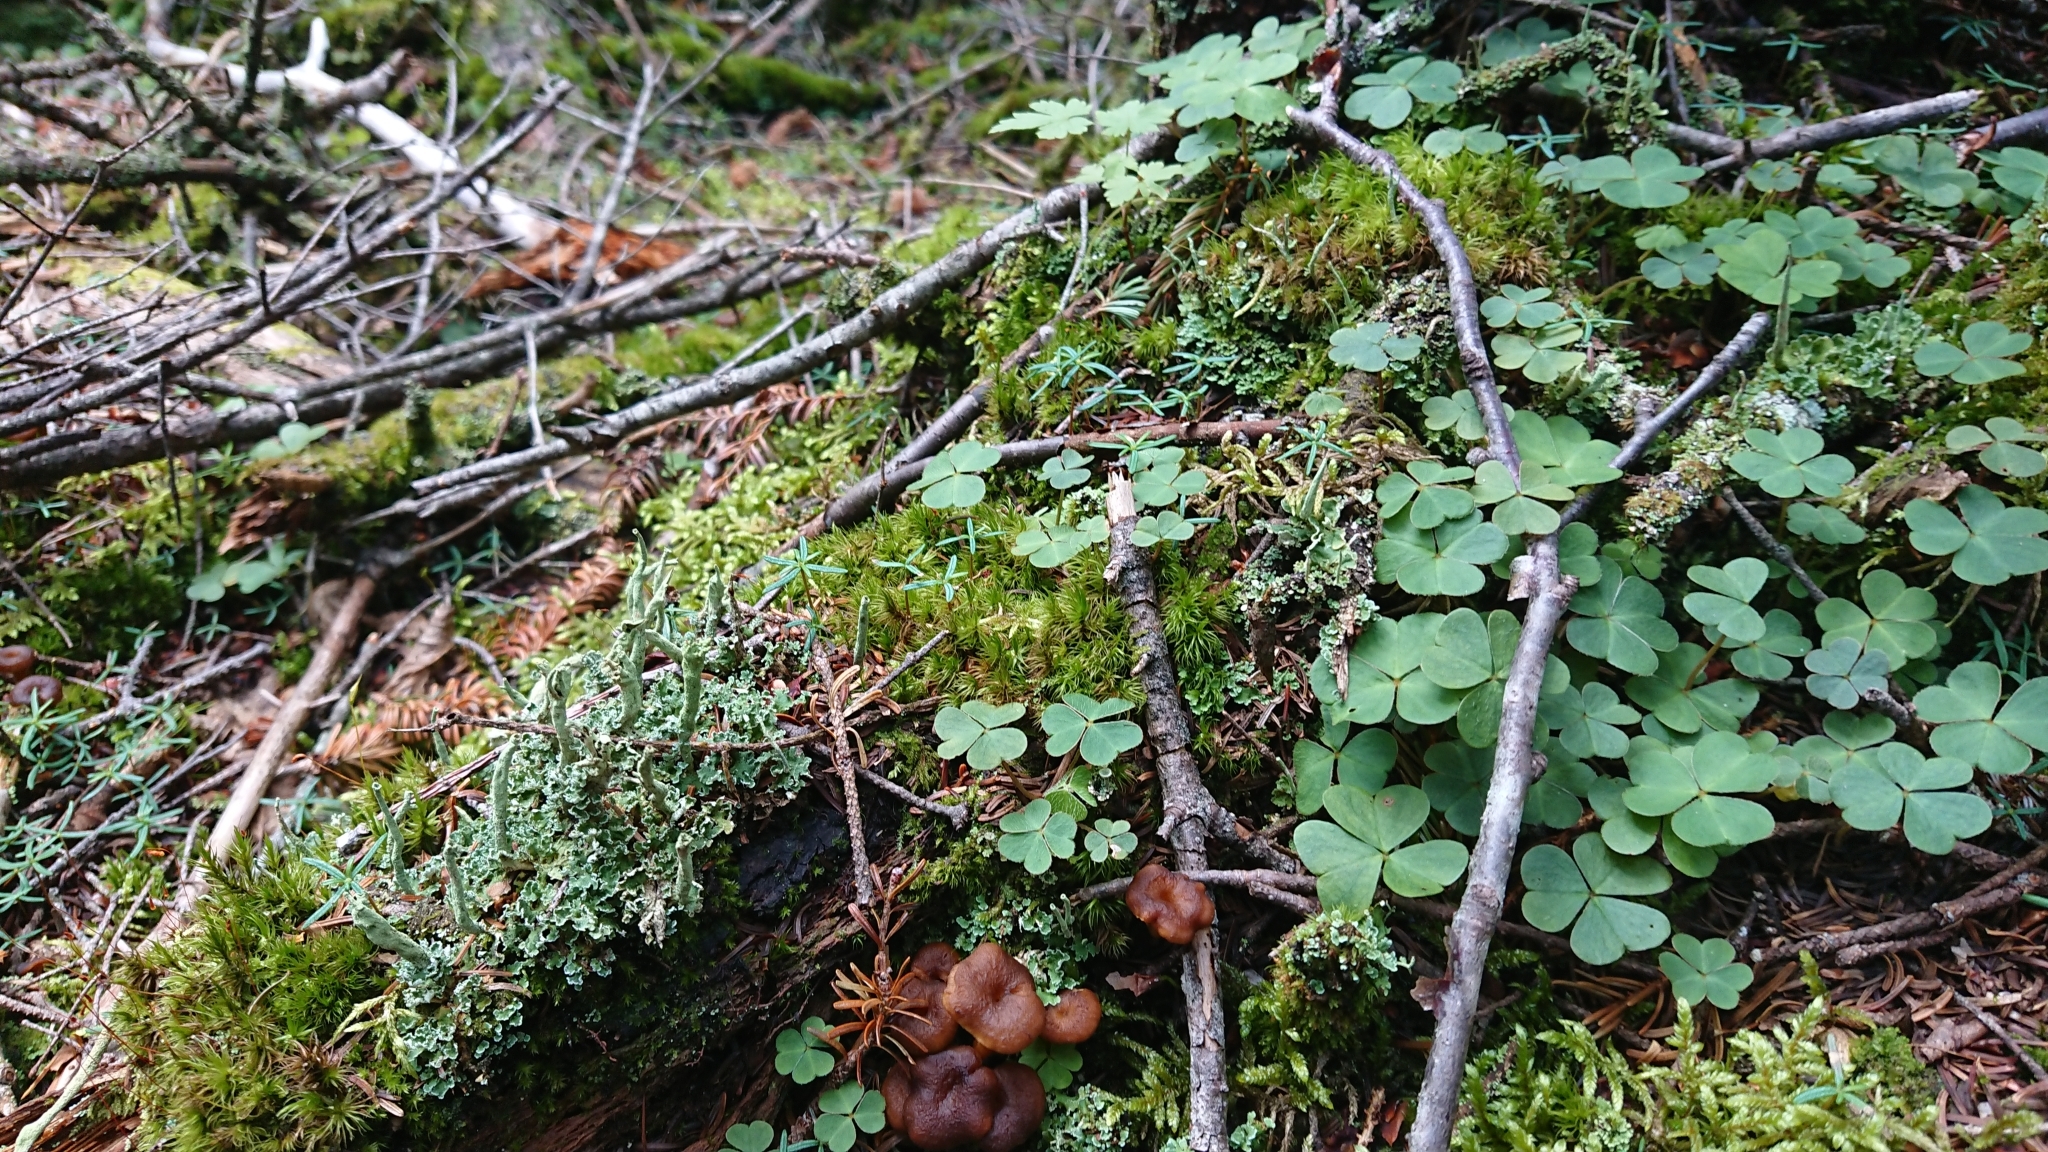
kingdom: Plantae
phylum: Tracheophyta
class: Magnoliopsida
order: Oxalidales
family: Oxalidaceae
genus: Oxalis
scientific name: Oxalis montana
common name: American wood-sorrel
